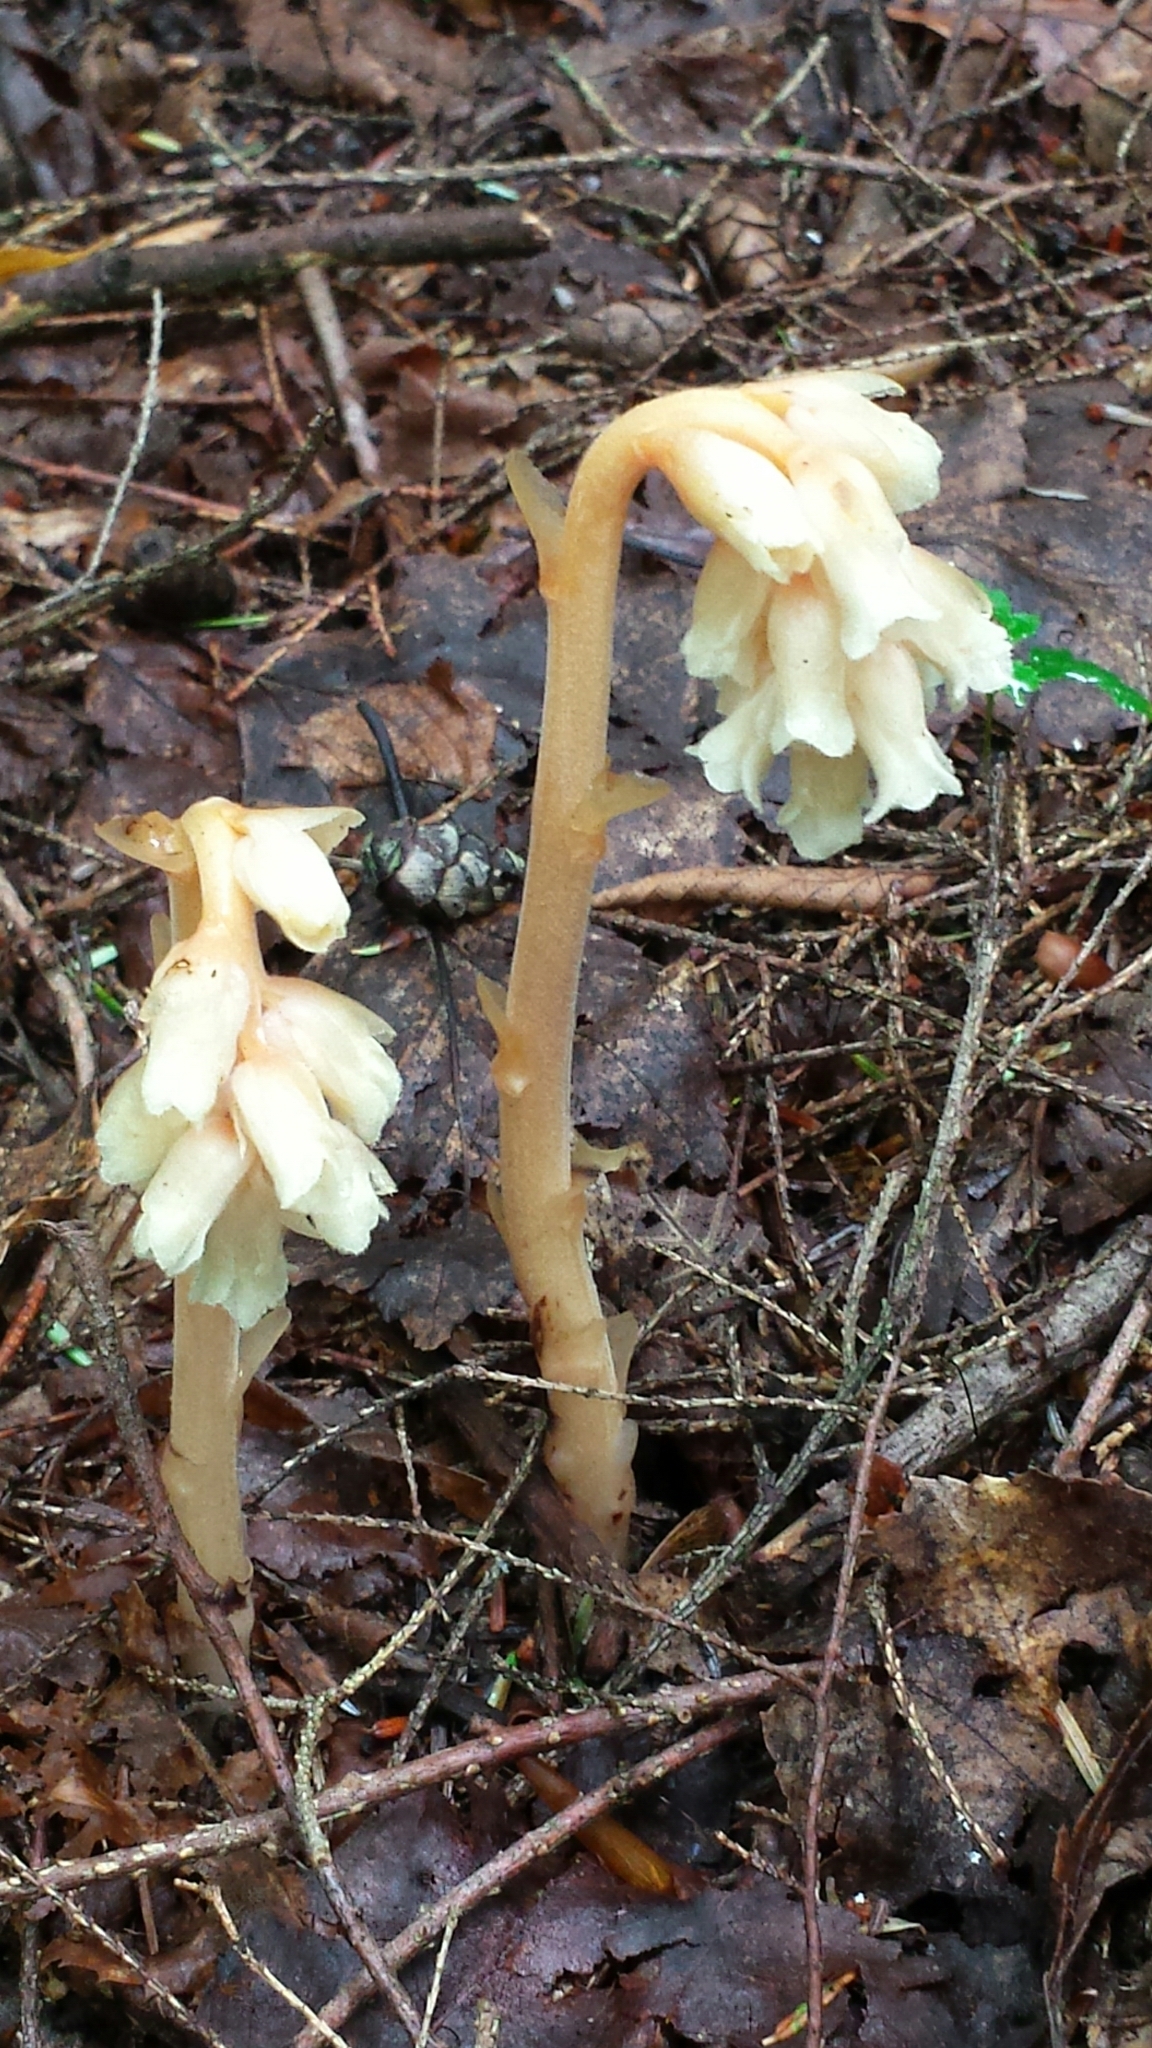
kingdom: Plantae
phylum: Tracheophyta
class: Magnoliopsida
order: Ericales
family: Ericaceae
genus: Hypopitys
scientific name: Hypopitys monotropa
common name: Yellow bird's-nest
